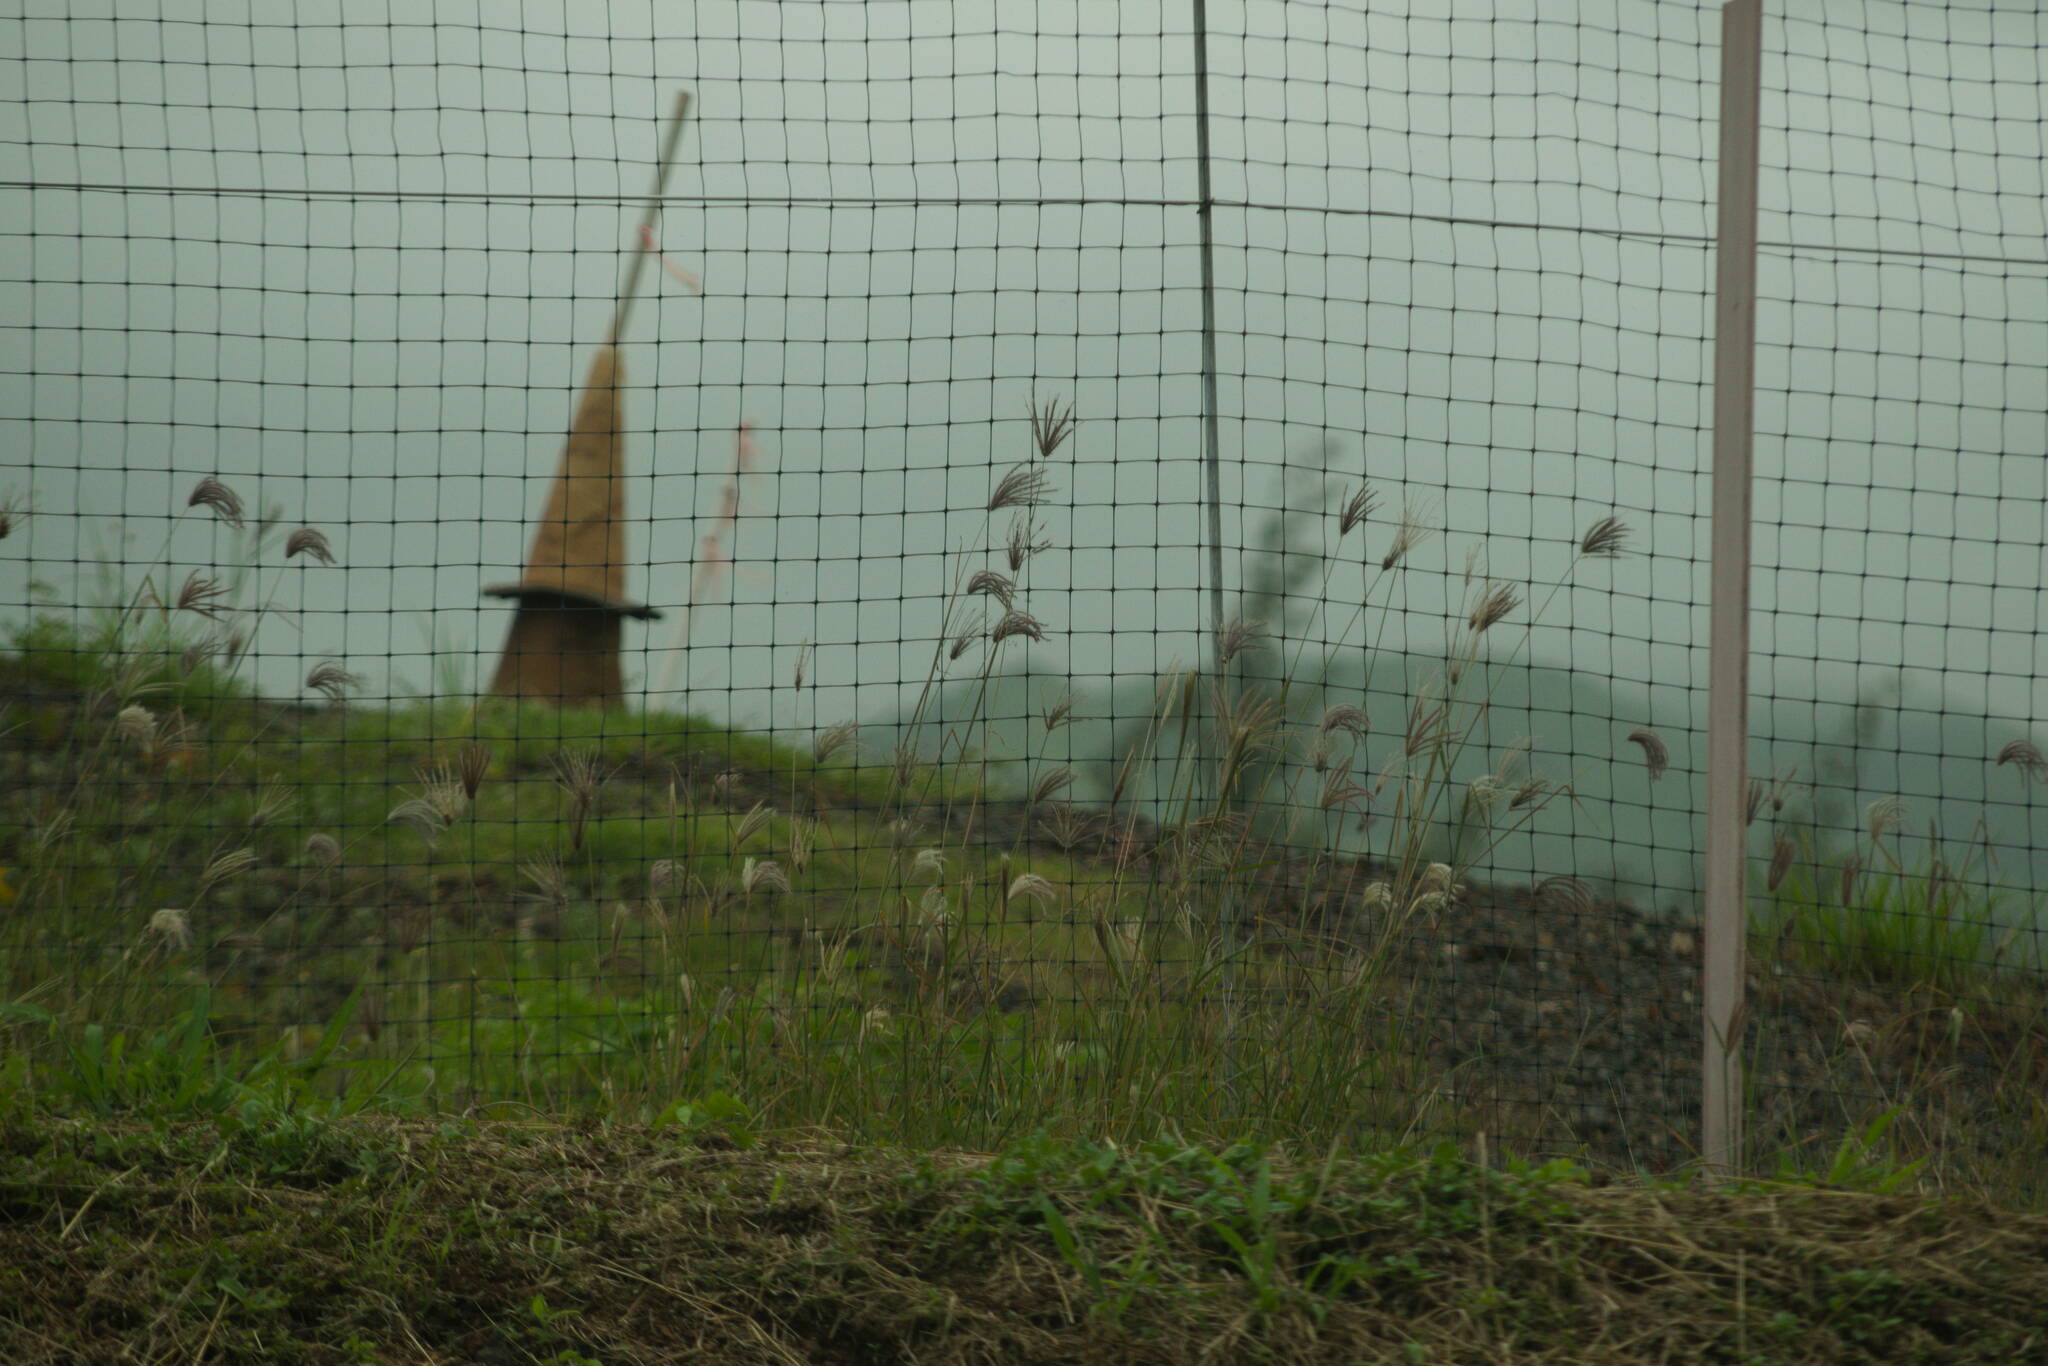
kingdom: Plantae
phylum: Tracheophyta
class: Liliopsida
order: Poales
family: Poaceae
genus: Chloris
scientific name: Chloris barbata
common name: Swollen fingergrass
